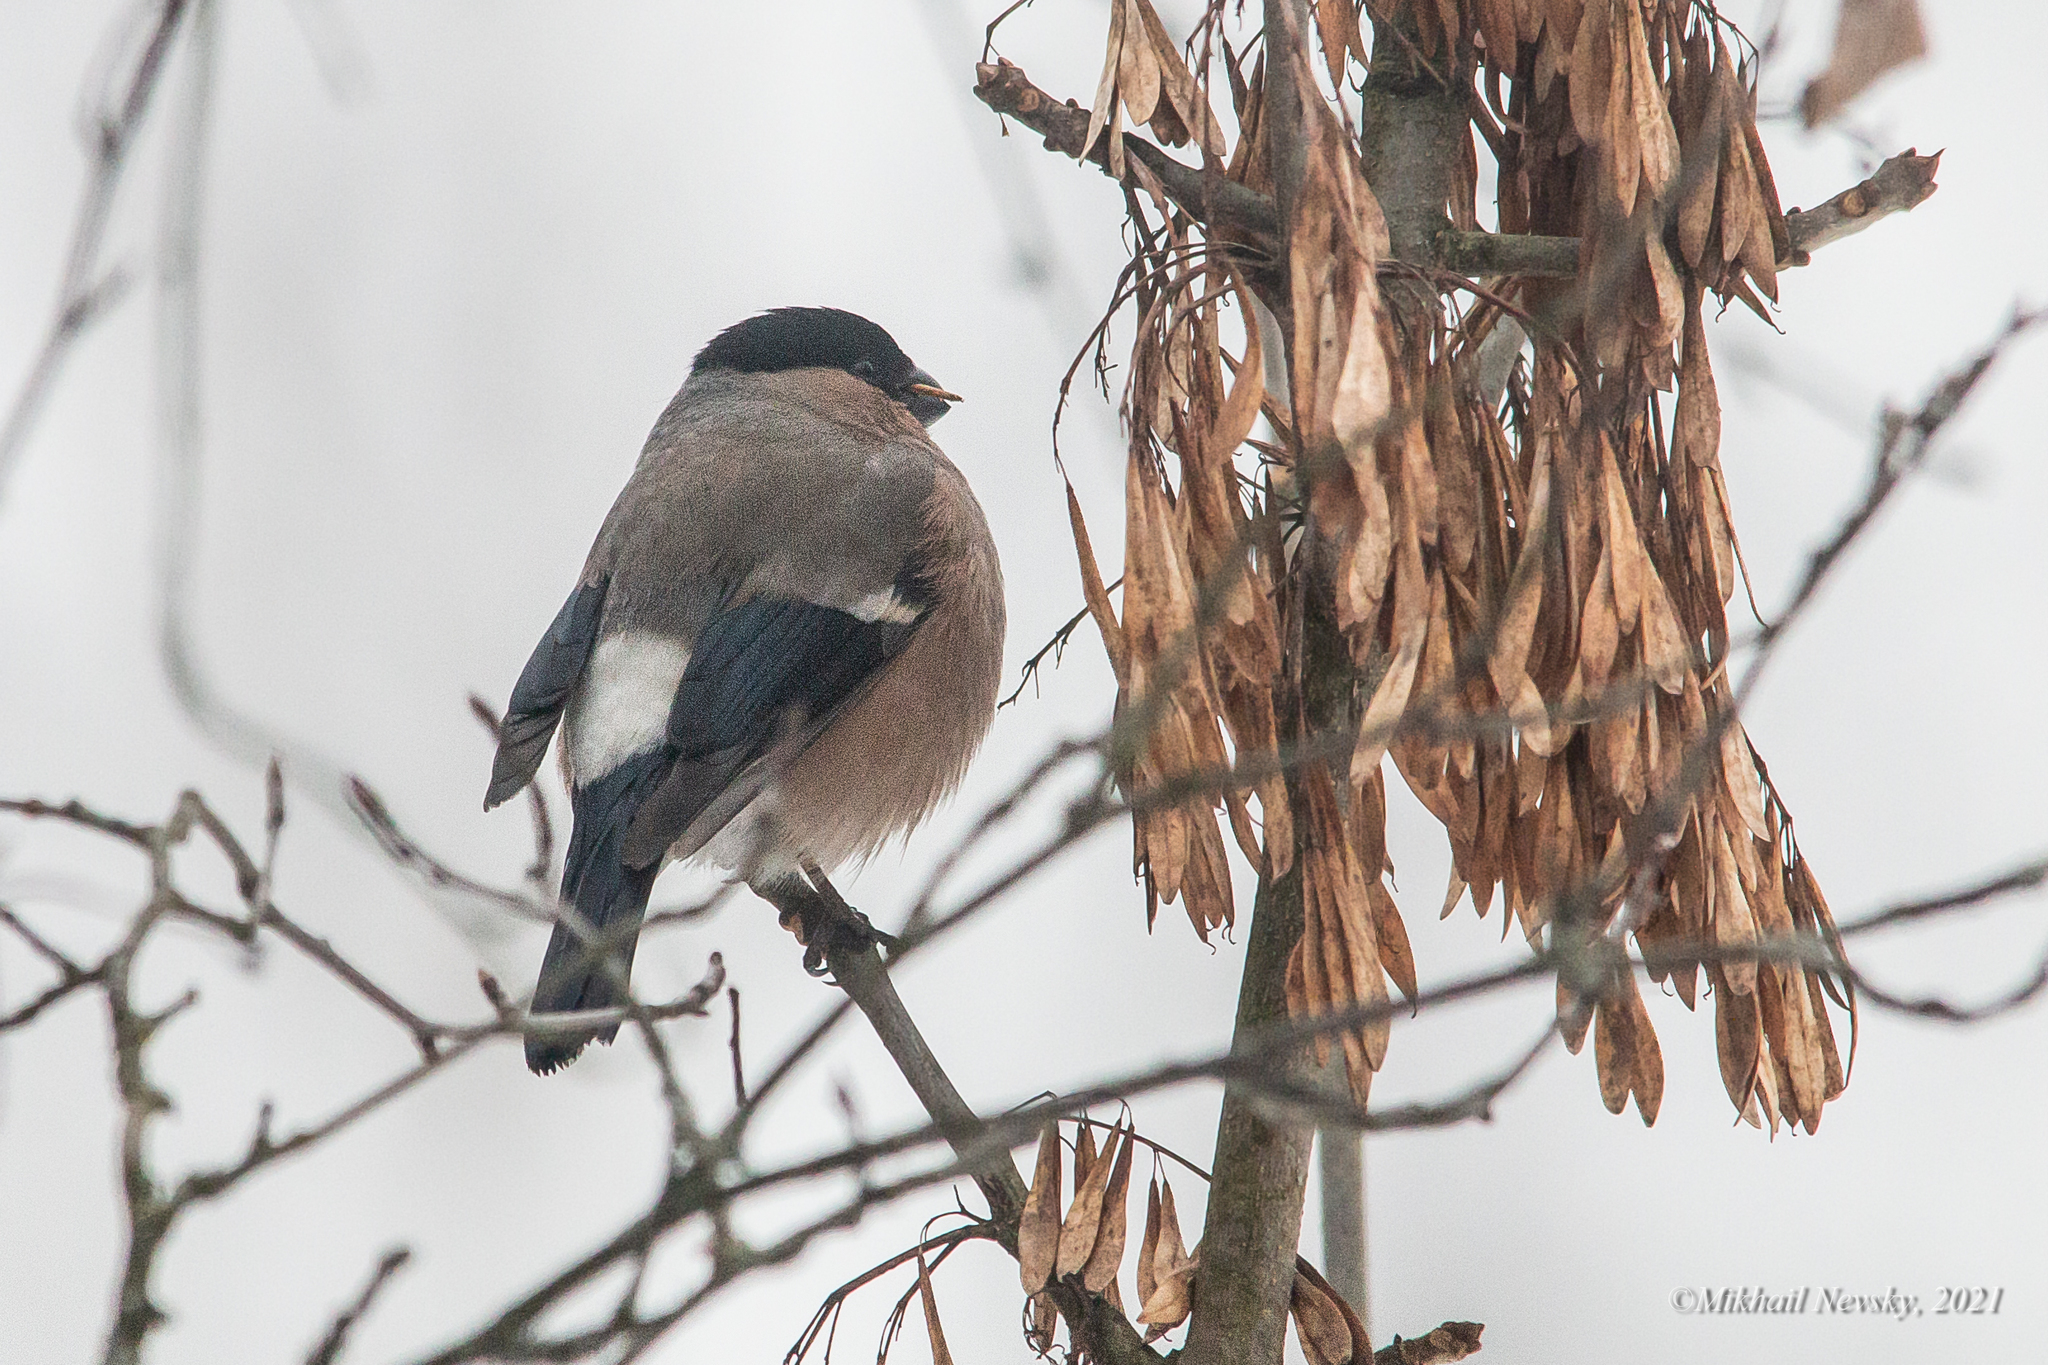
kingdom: Animalia
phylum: Chordata
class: Aves
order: Passeriformes
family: Fringillidae
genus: Pyrrhula
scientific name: Pyrrhula pyrrhula
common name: Eurasian bullfinch
